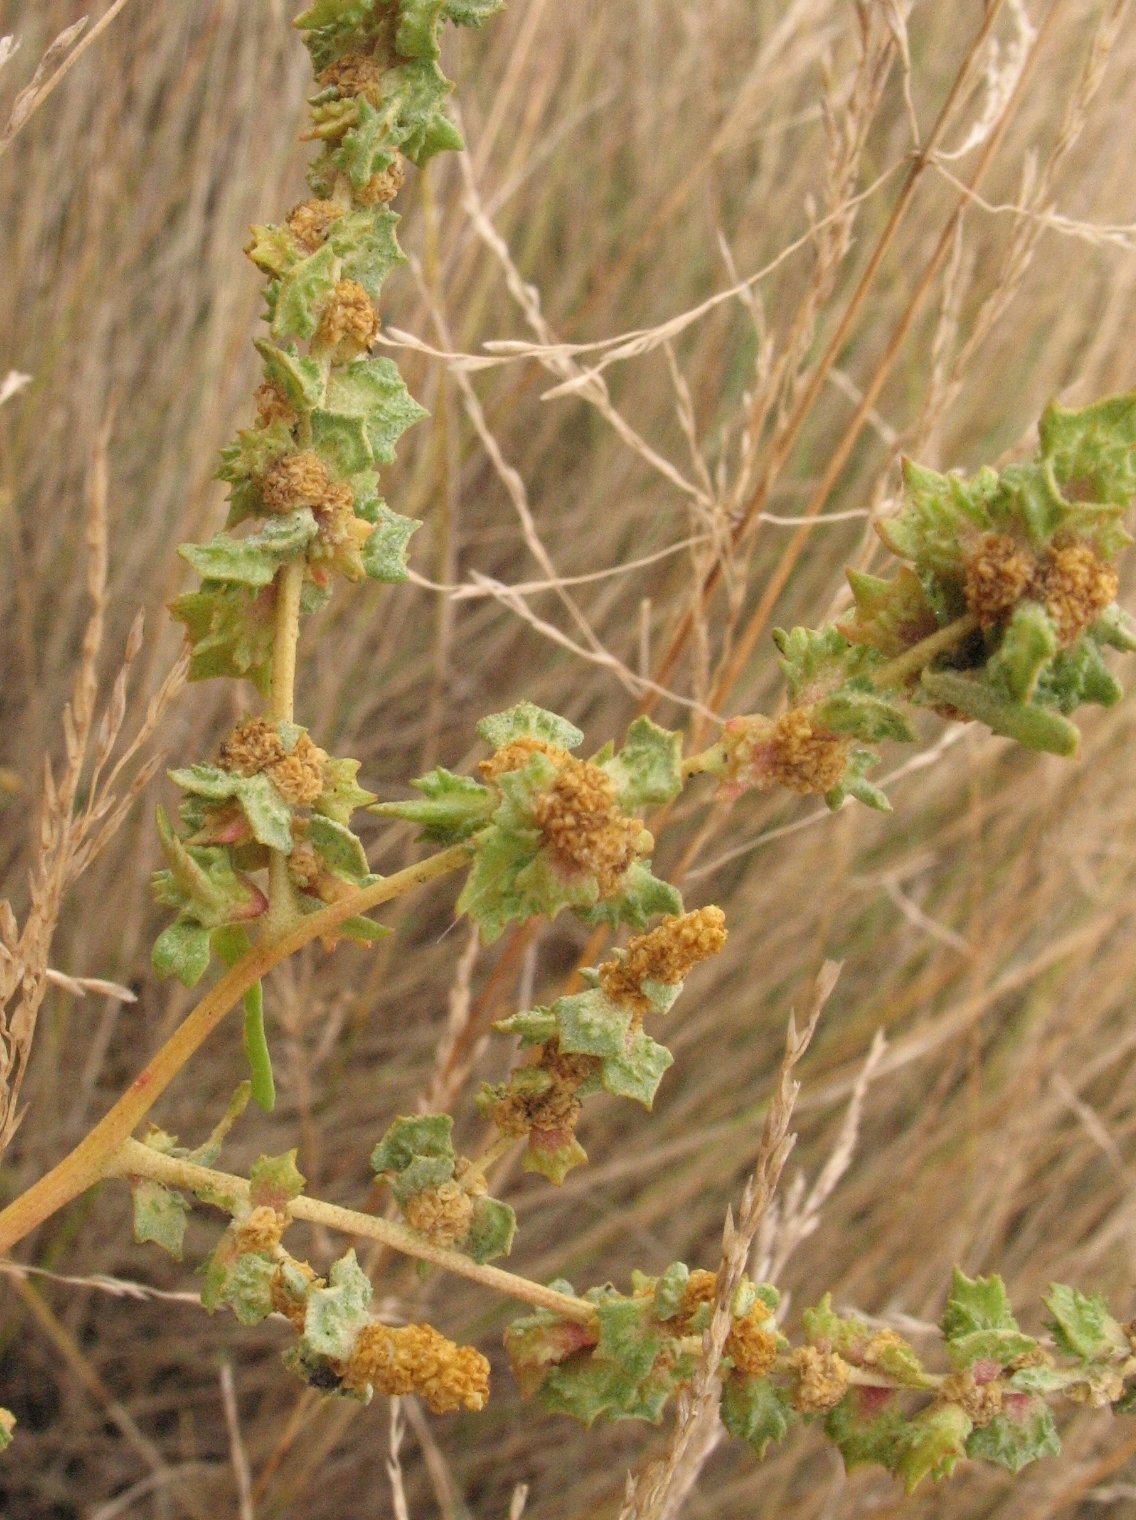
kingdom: Plantae
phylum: Tracheophyta
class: Magnoliopsida
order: Caryophyllales
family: Amaranthaceae
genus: Atriplex
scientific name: Atriplex tatarica
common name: Tatarian orache
